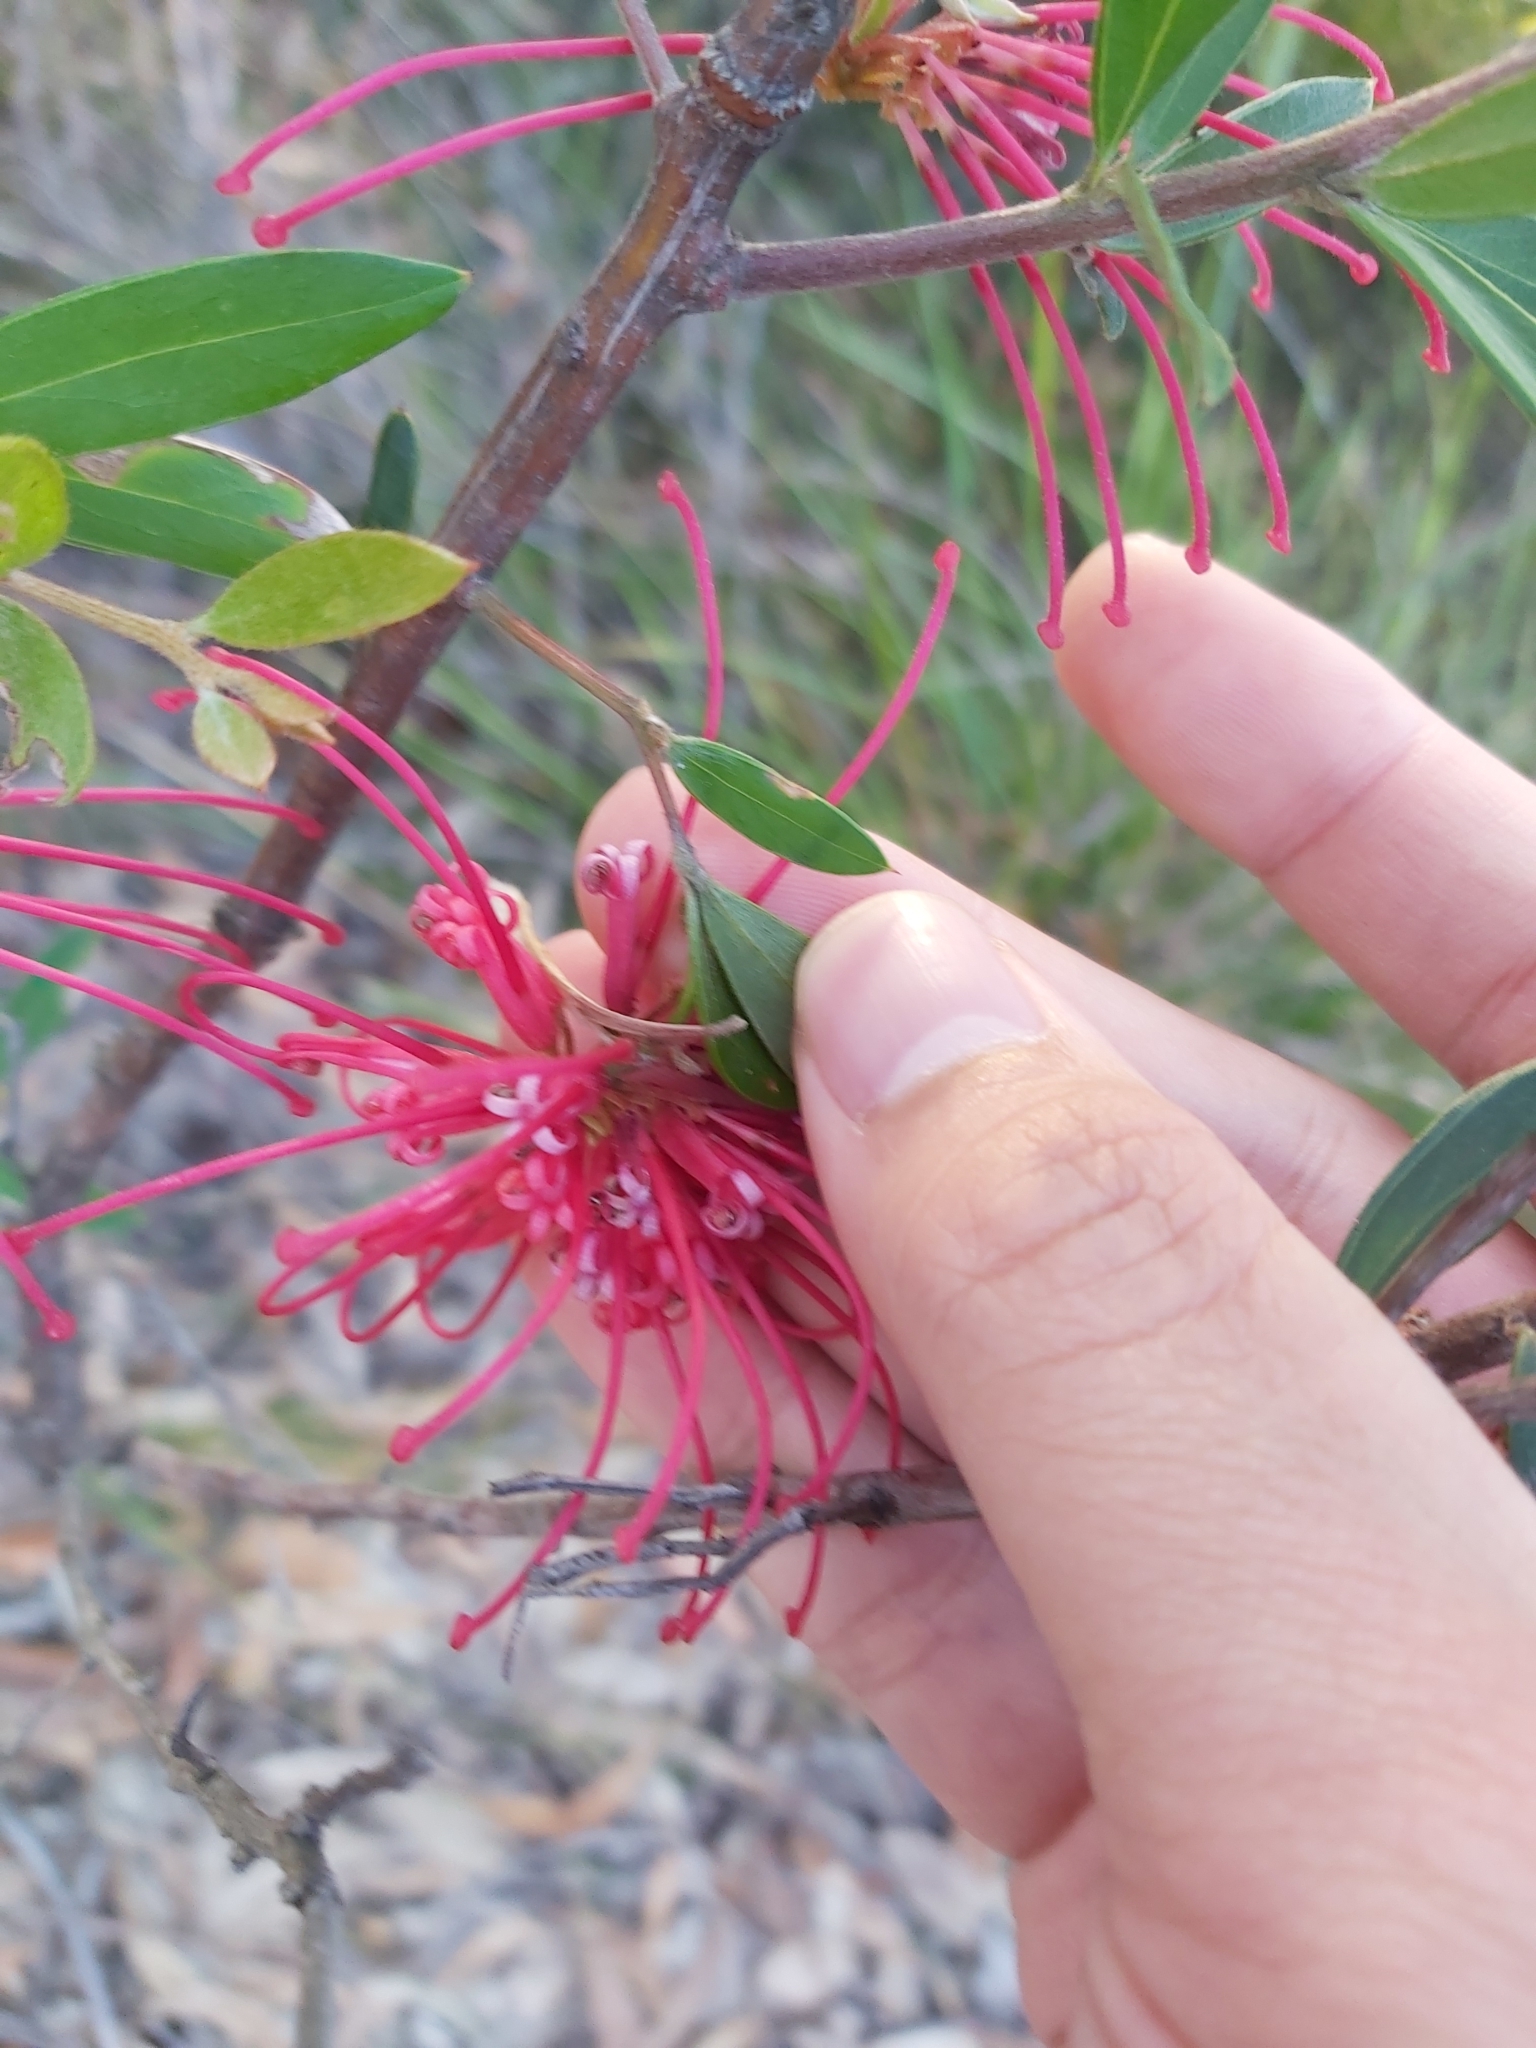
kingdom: Plantae
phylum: Tracheophyta
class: Magnoliopsida
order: Proteales
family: Proteaceae
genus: Grevillea
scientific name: Grevillea speciosa
